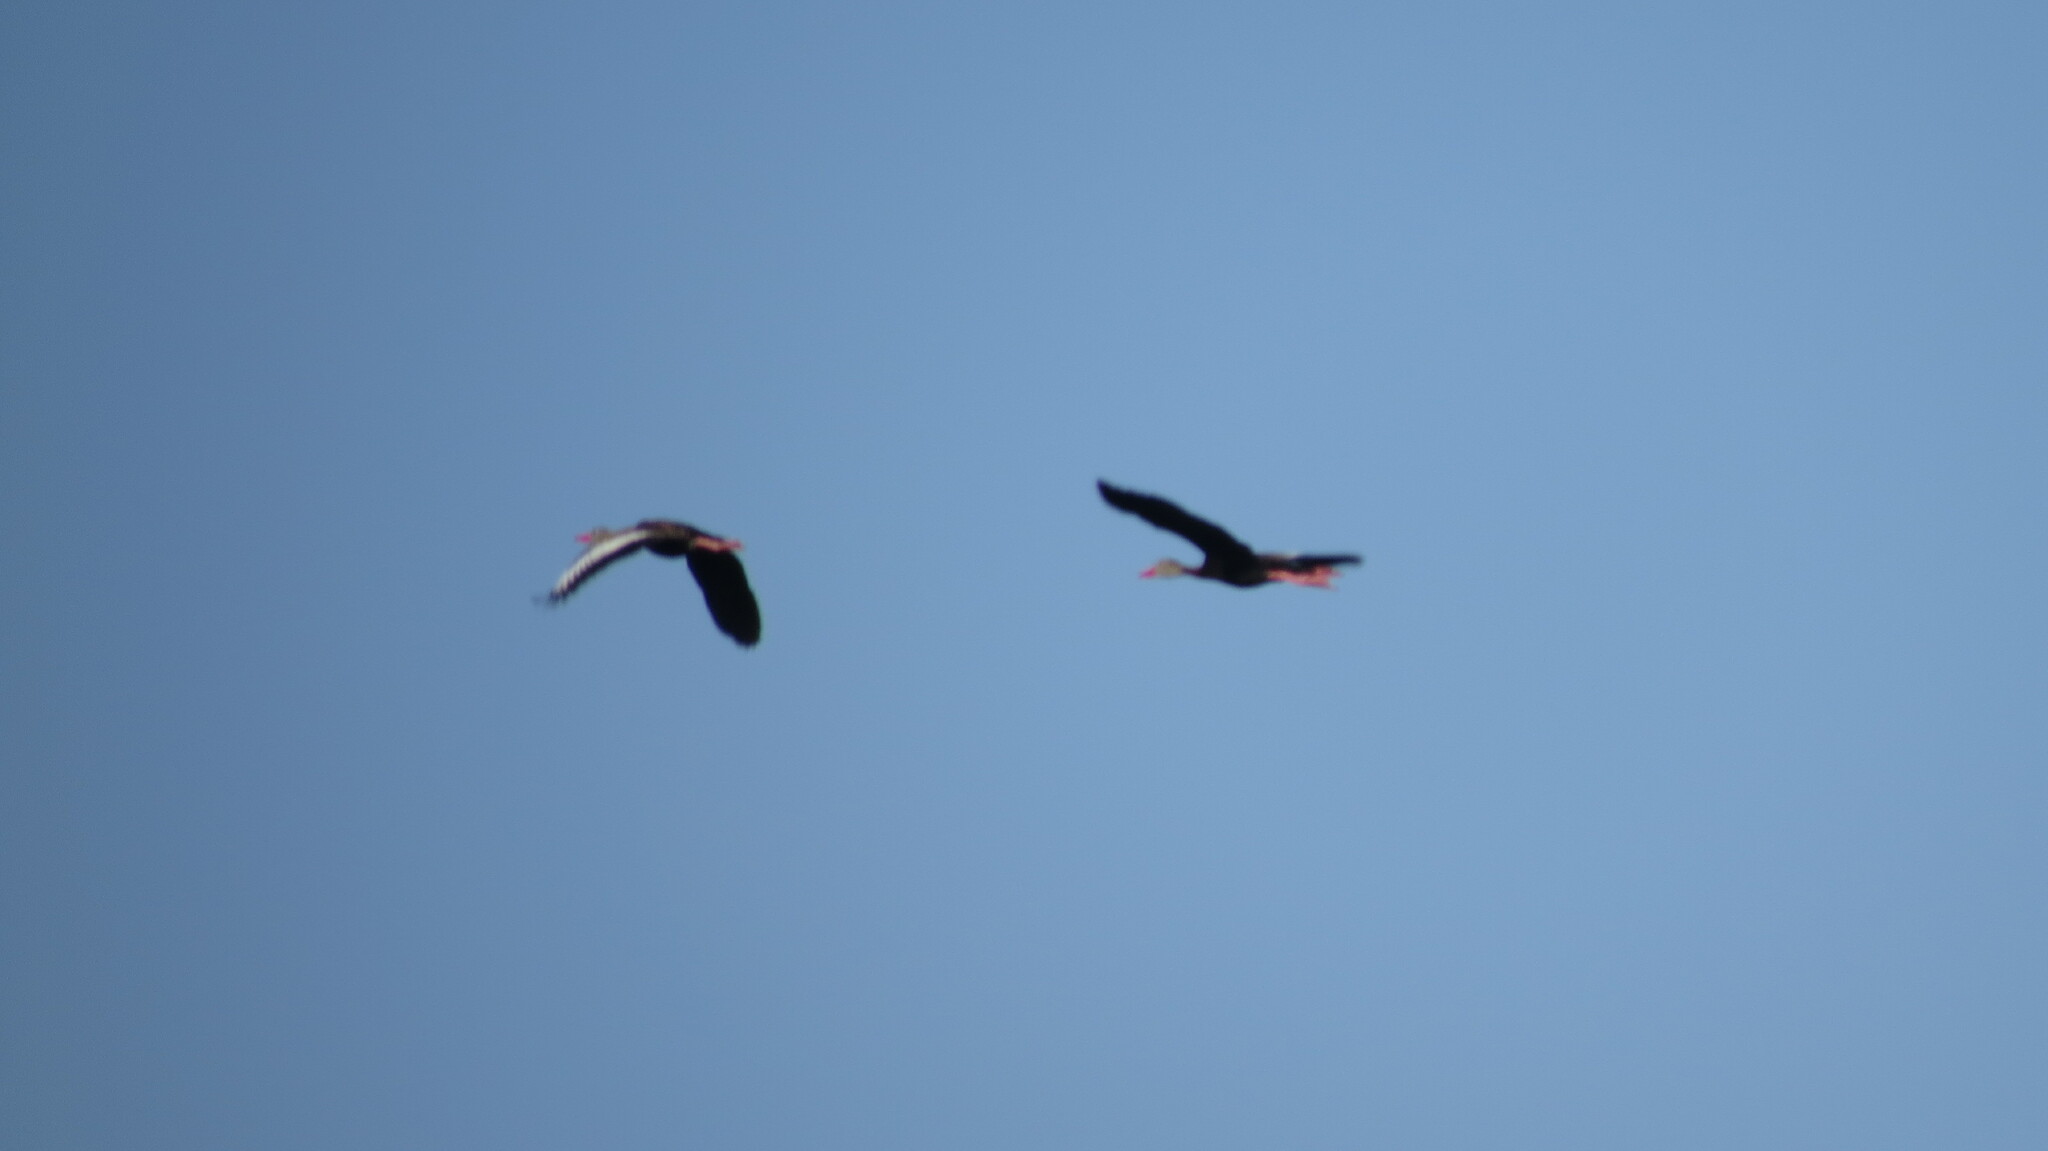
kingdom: Animalia
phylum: Chordata
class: Aves
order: Anseriformes
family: Anatidae
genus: Dendrocygna
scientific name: Dendrocygna autumnalis
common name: Black-bellied whistling duck
